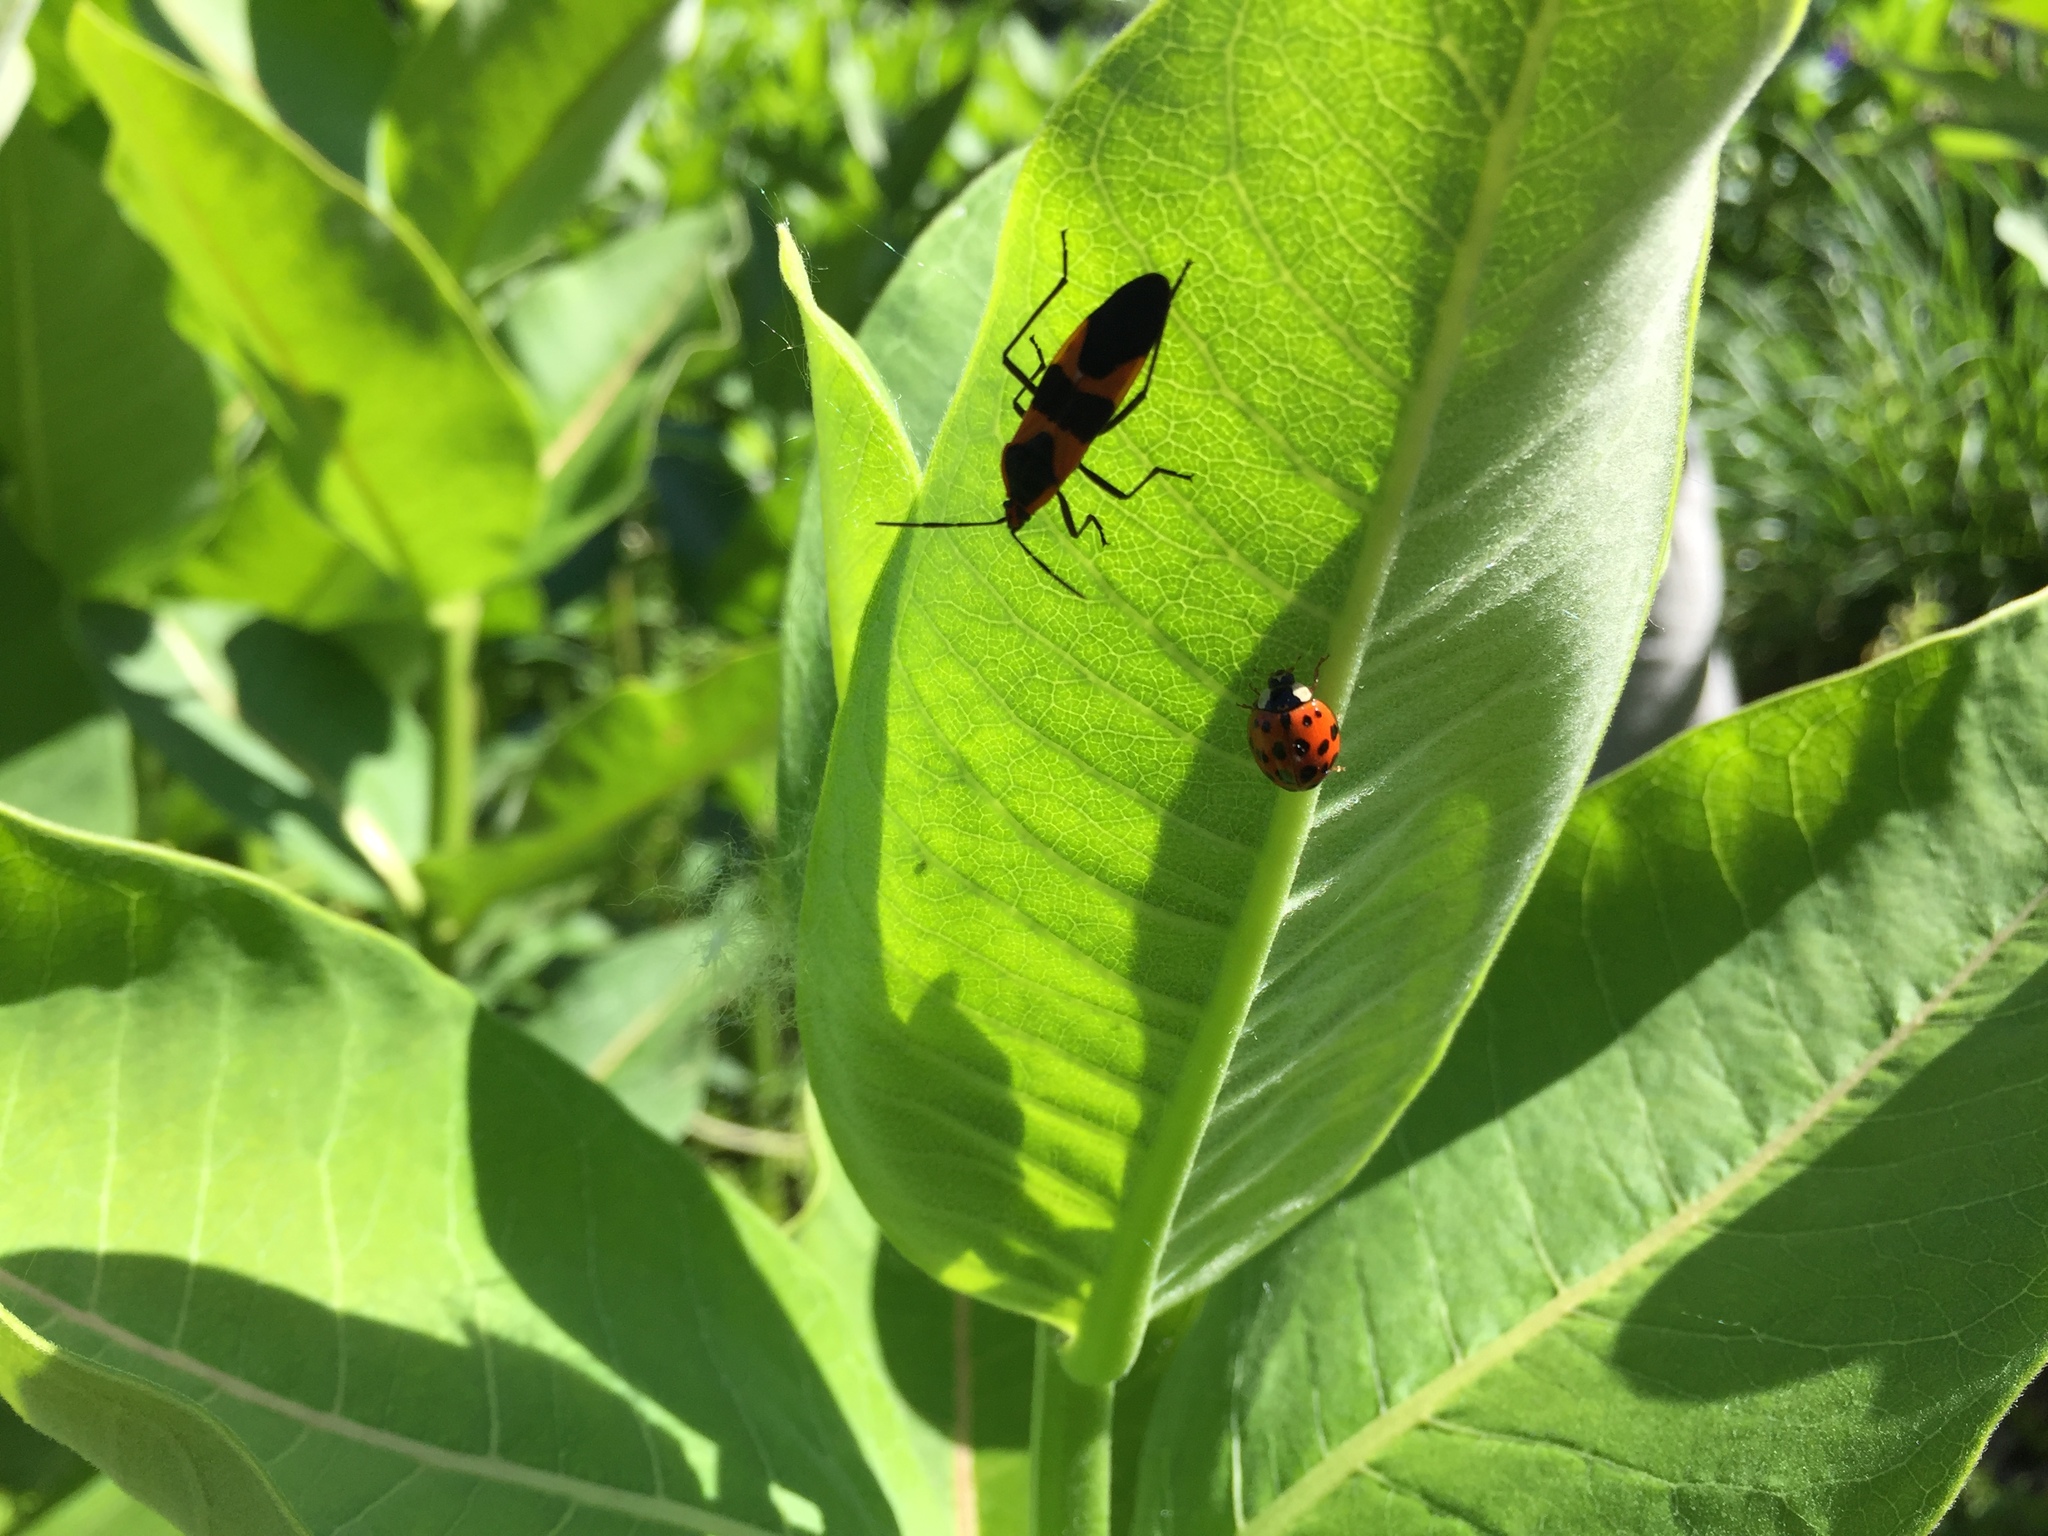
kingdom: Animalia
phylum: Arthropoda
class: Insecta
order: Coleoptera
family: Coccinellidae
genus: Harmonia
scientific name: Harmonia axyridis
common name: Harlequin ladybird
